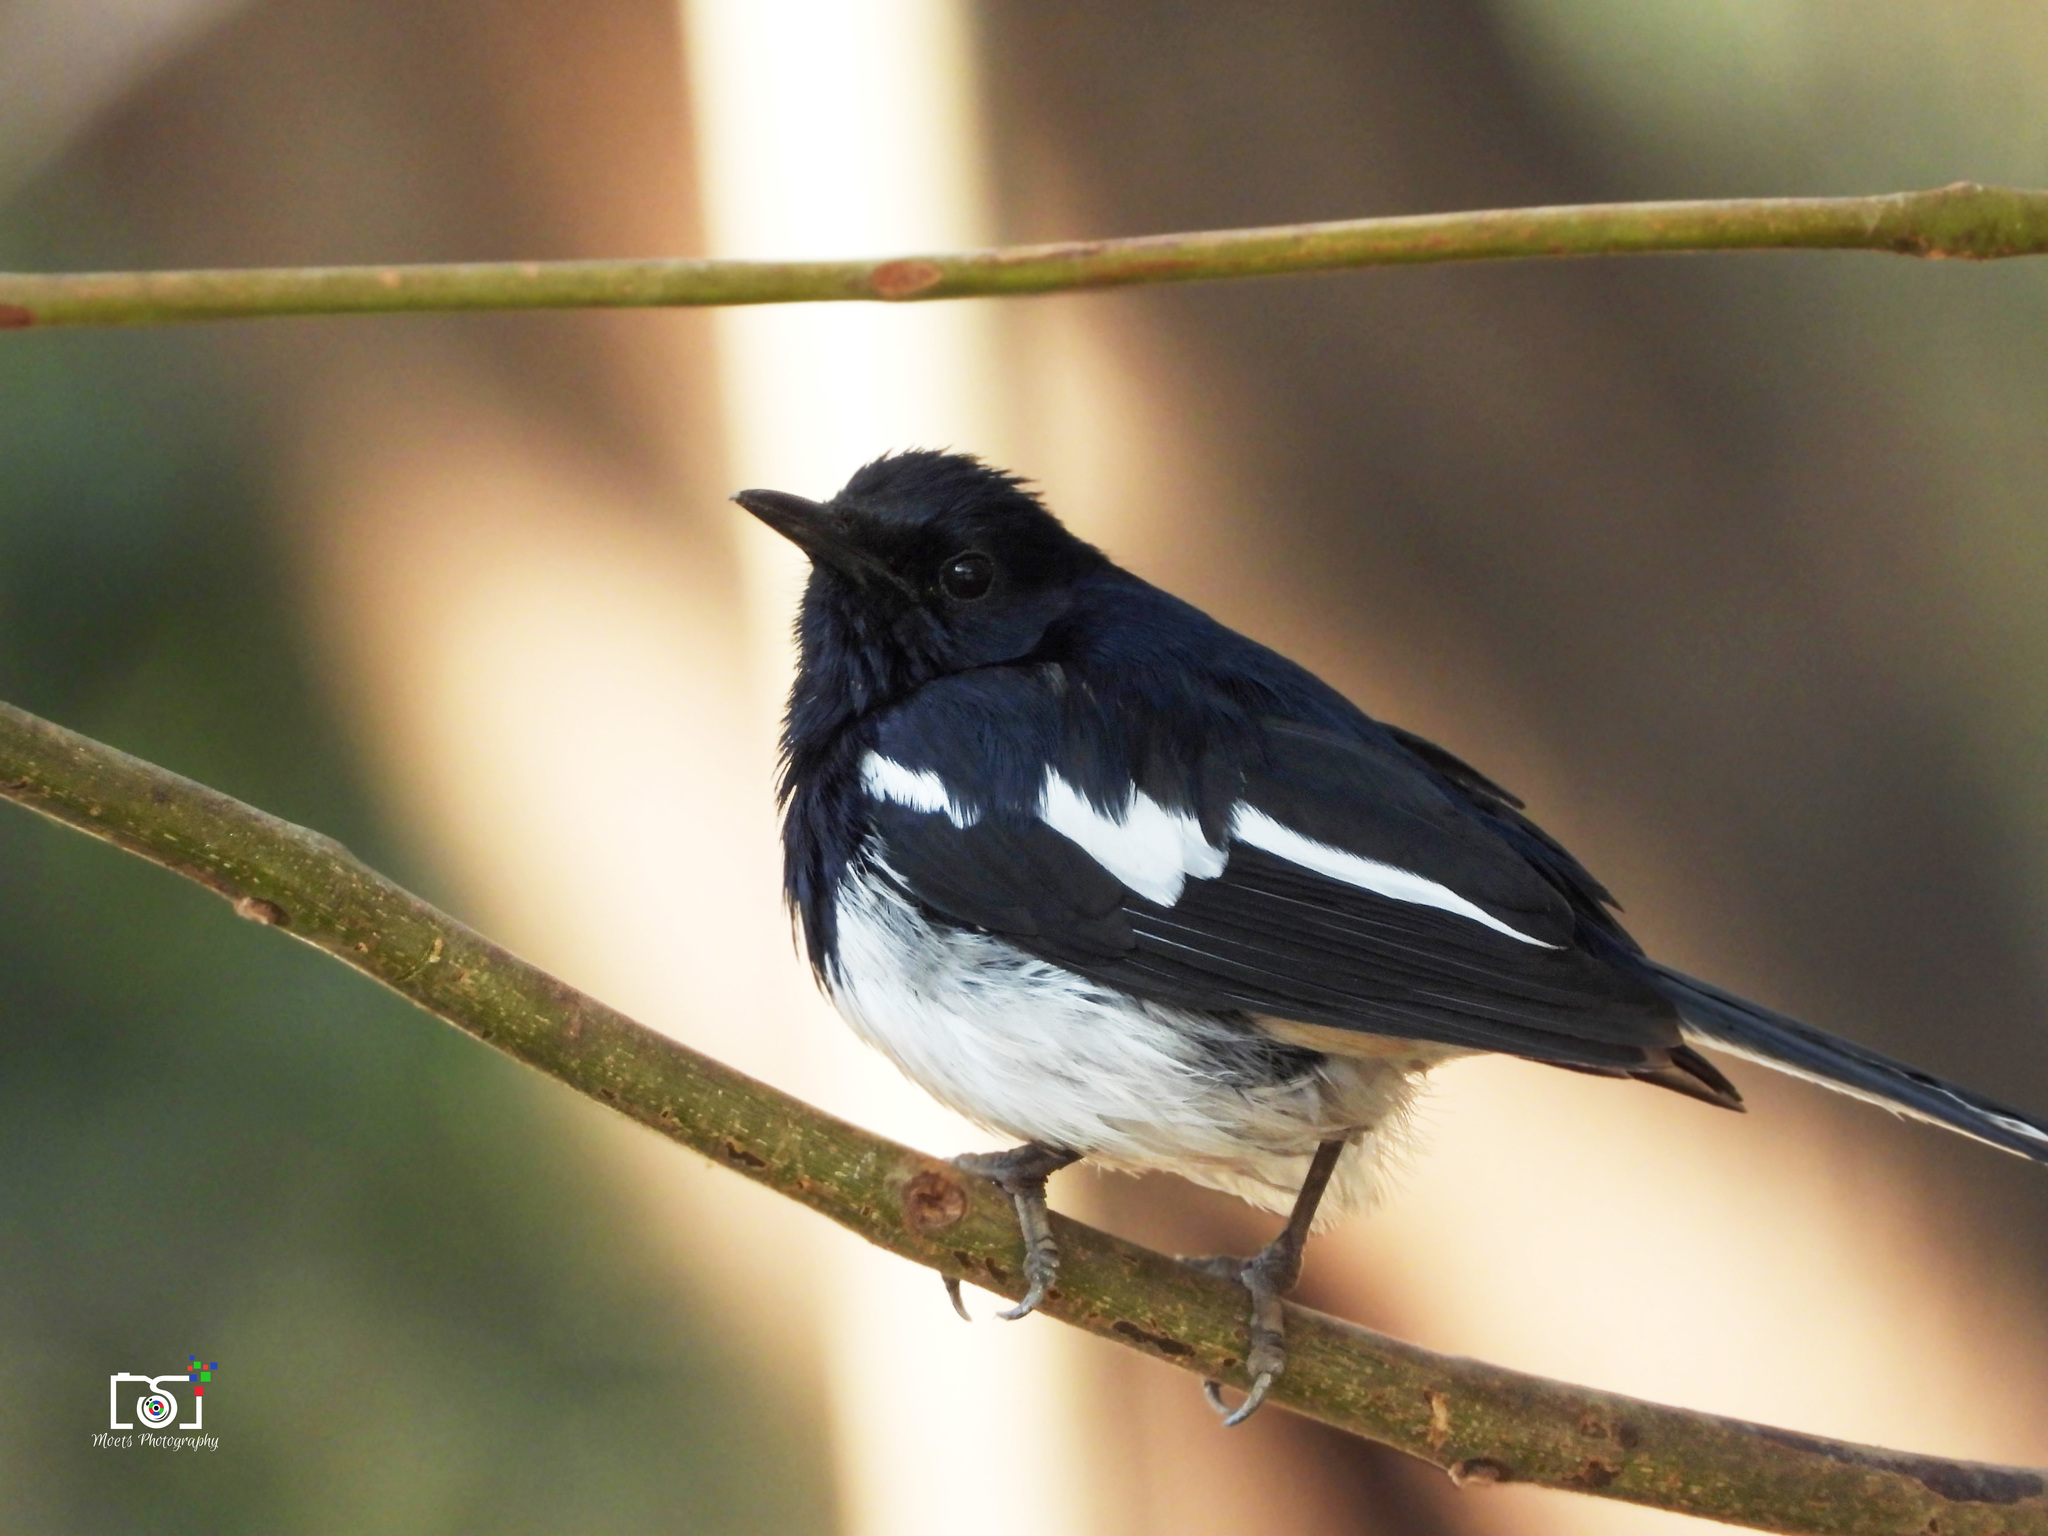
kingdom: Animalia
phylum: Chordata
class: Aves
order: Passeriformes
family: Muscicapidae
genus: Copsychus
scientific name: Copsychus saularis
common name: Oriental magpie-robin
